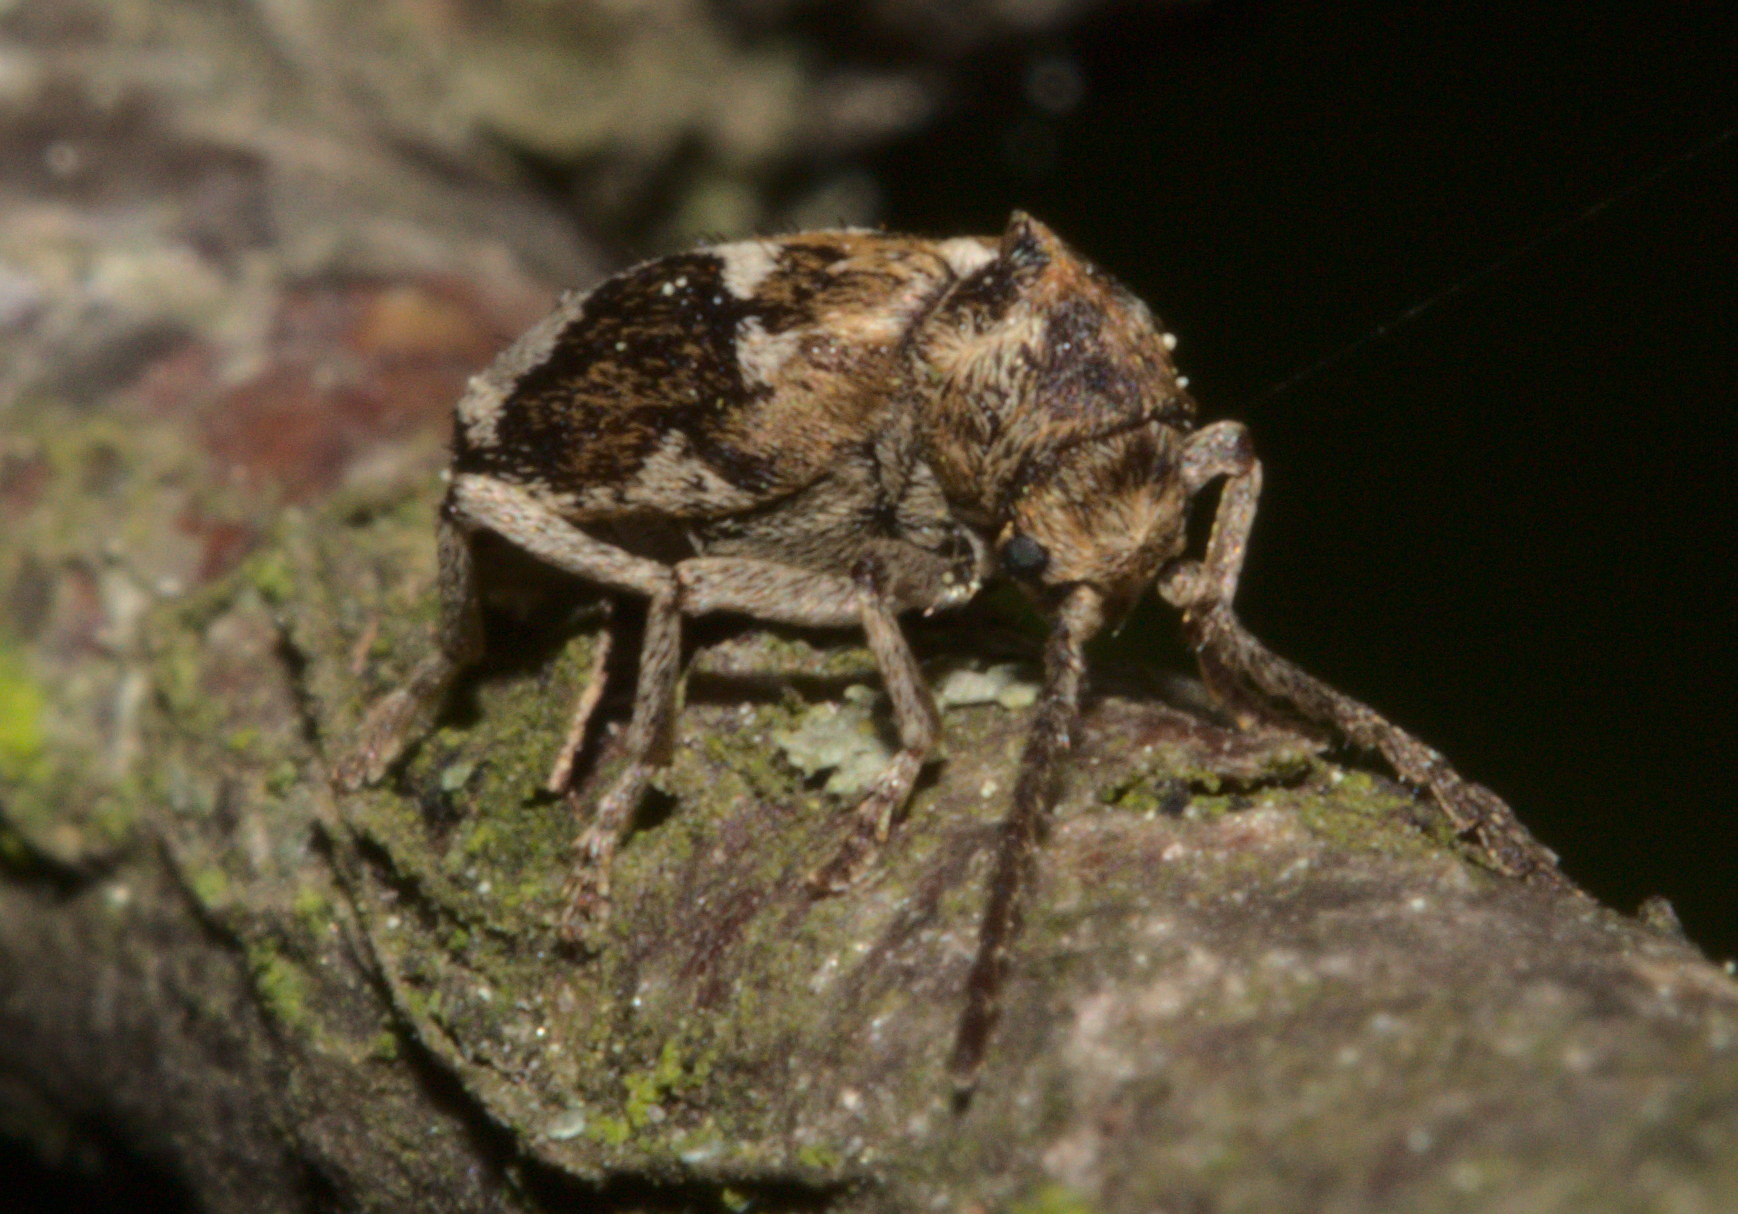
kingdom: Animalia
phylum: Arthropoda
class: Insecta
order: Coleoptera
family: Anobiidae
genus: Ptinomorphus
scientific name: Ptinomorphus imperialis
